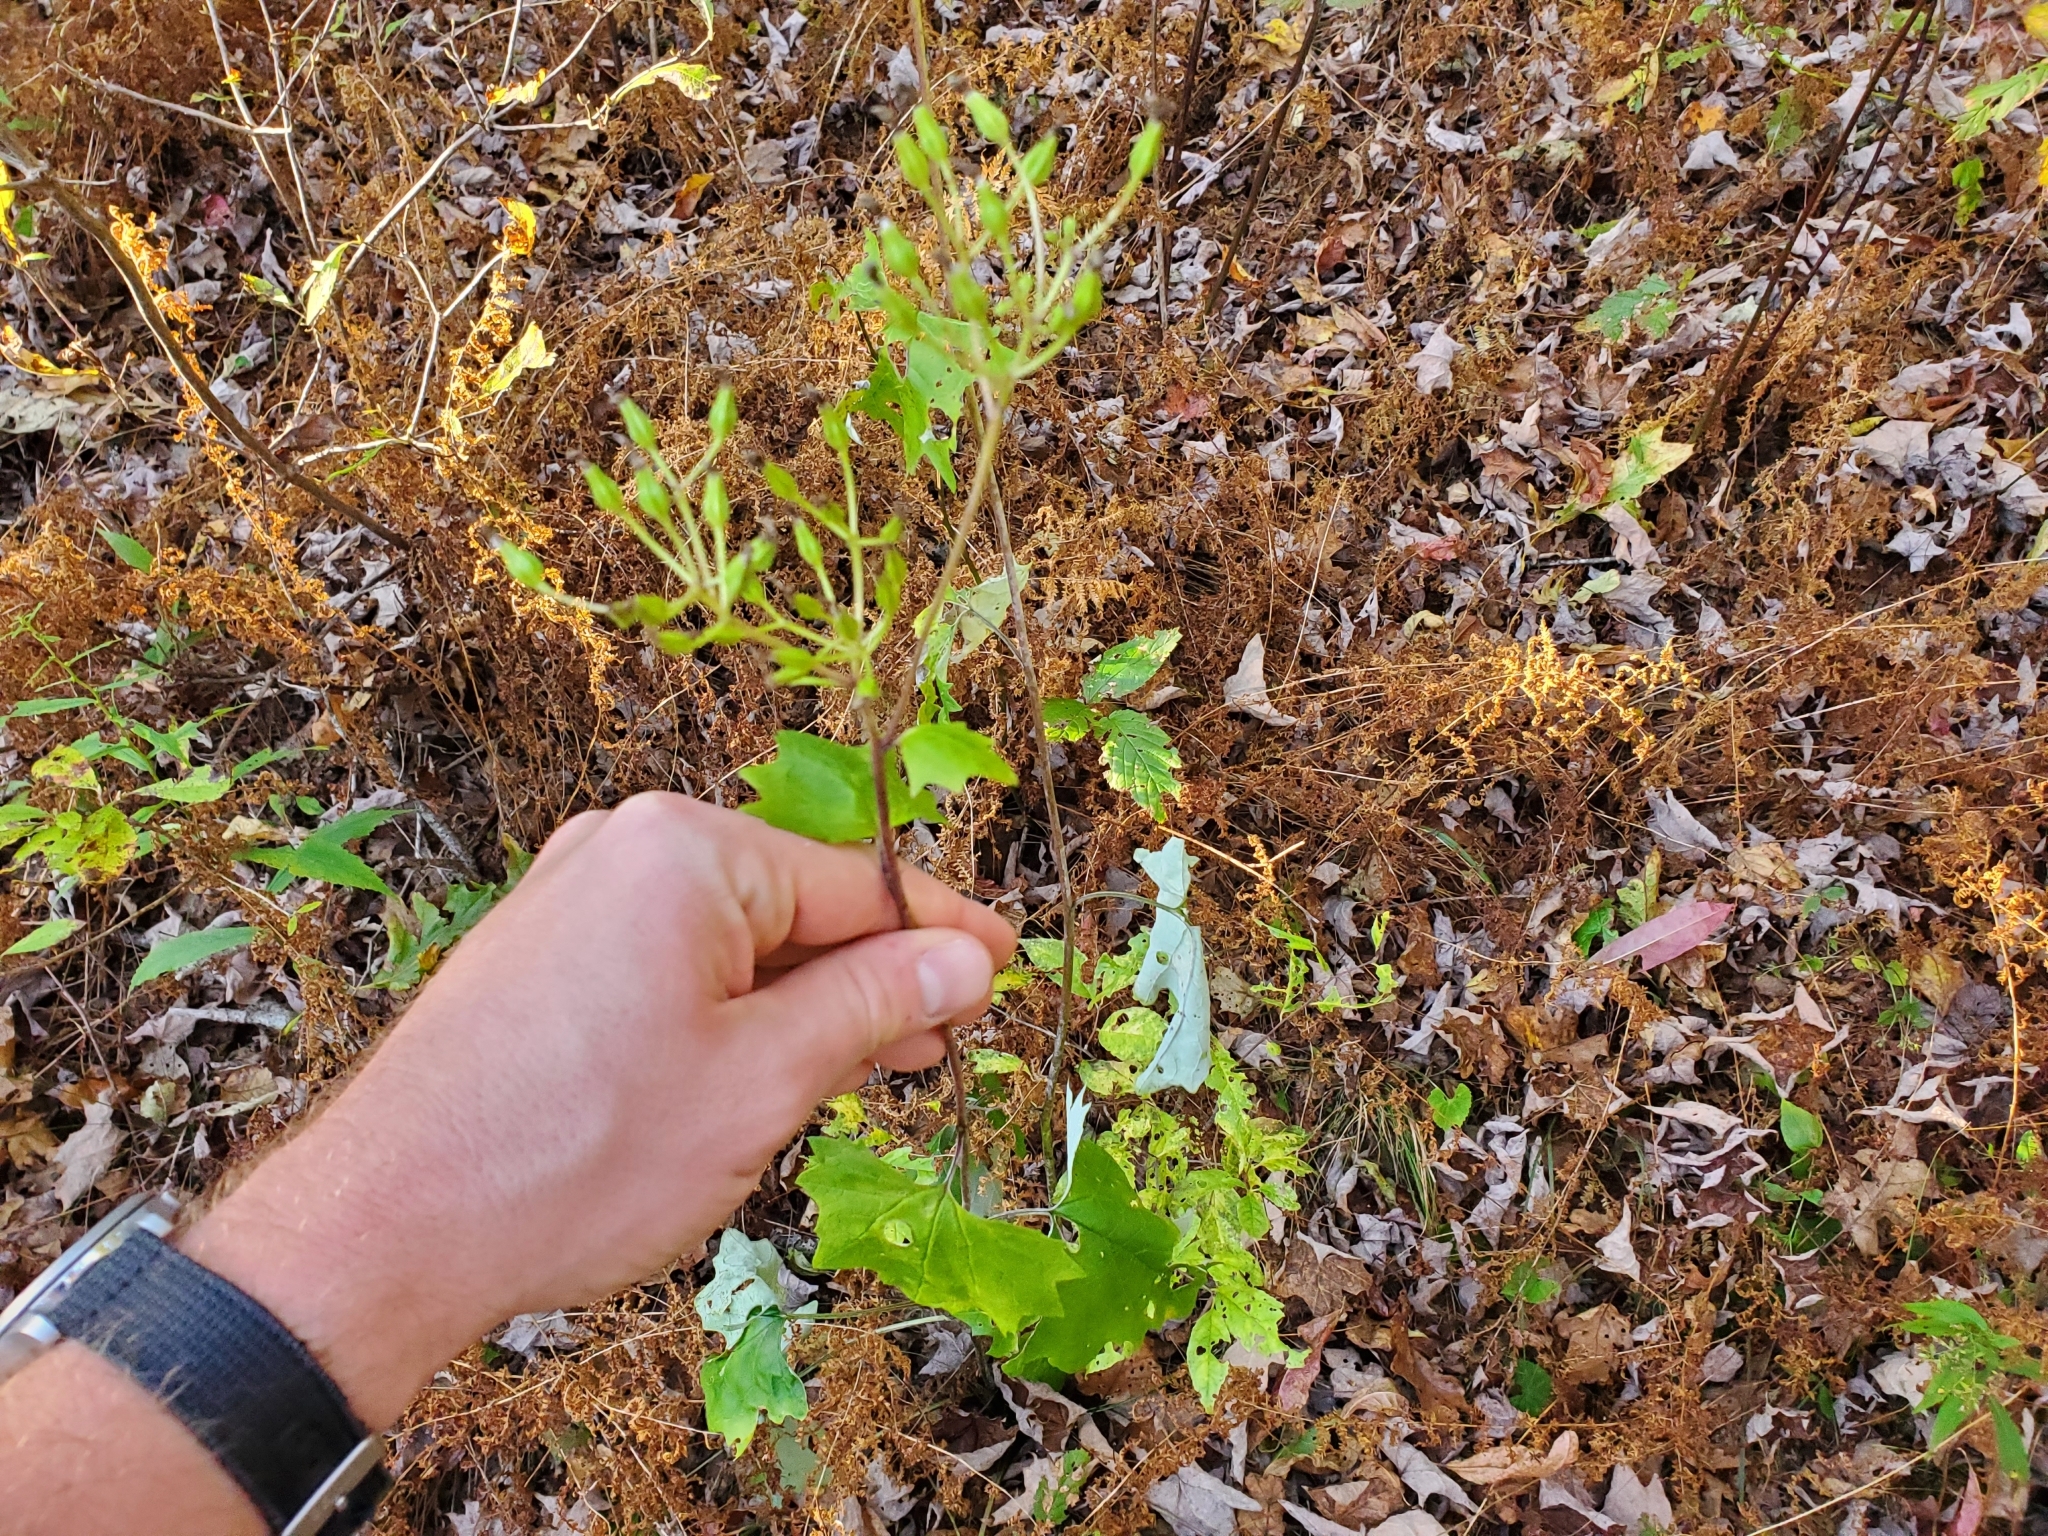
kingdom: Plantae
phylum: Tracheophyta
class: Magnoliopsida
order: Asterales
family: Asteraceae
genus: Arnoglossum
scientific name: Arnoglossum atriplicifolium
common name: Pale indian-plantain
